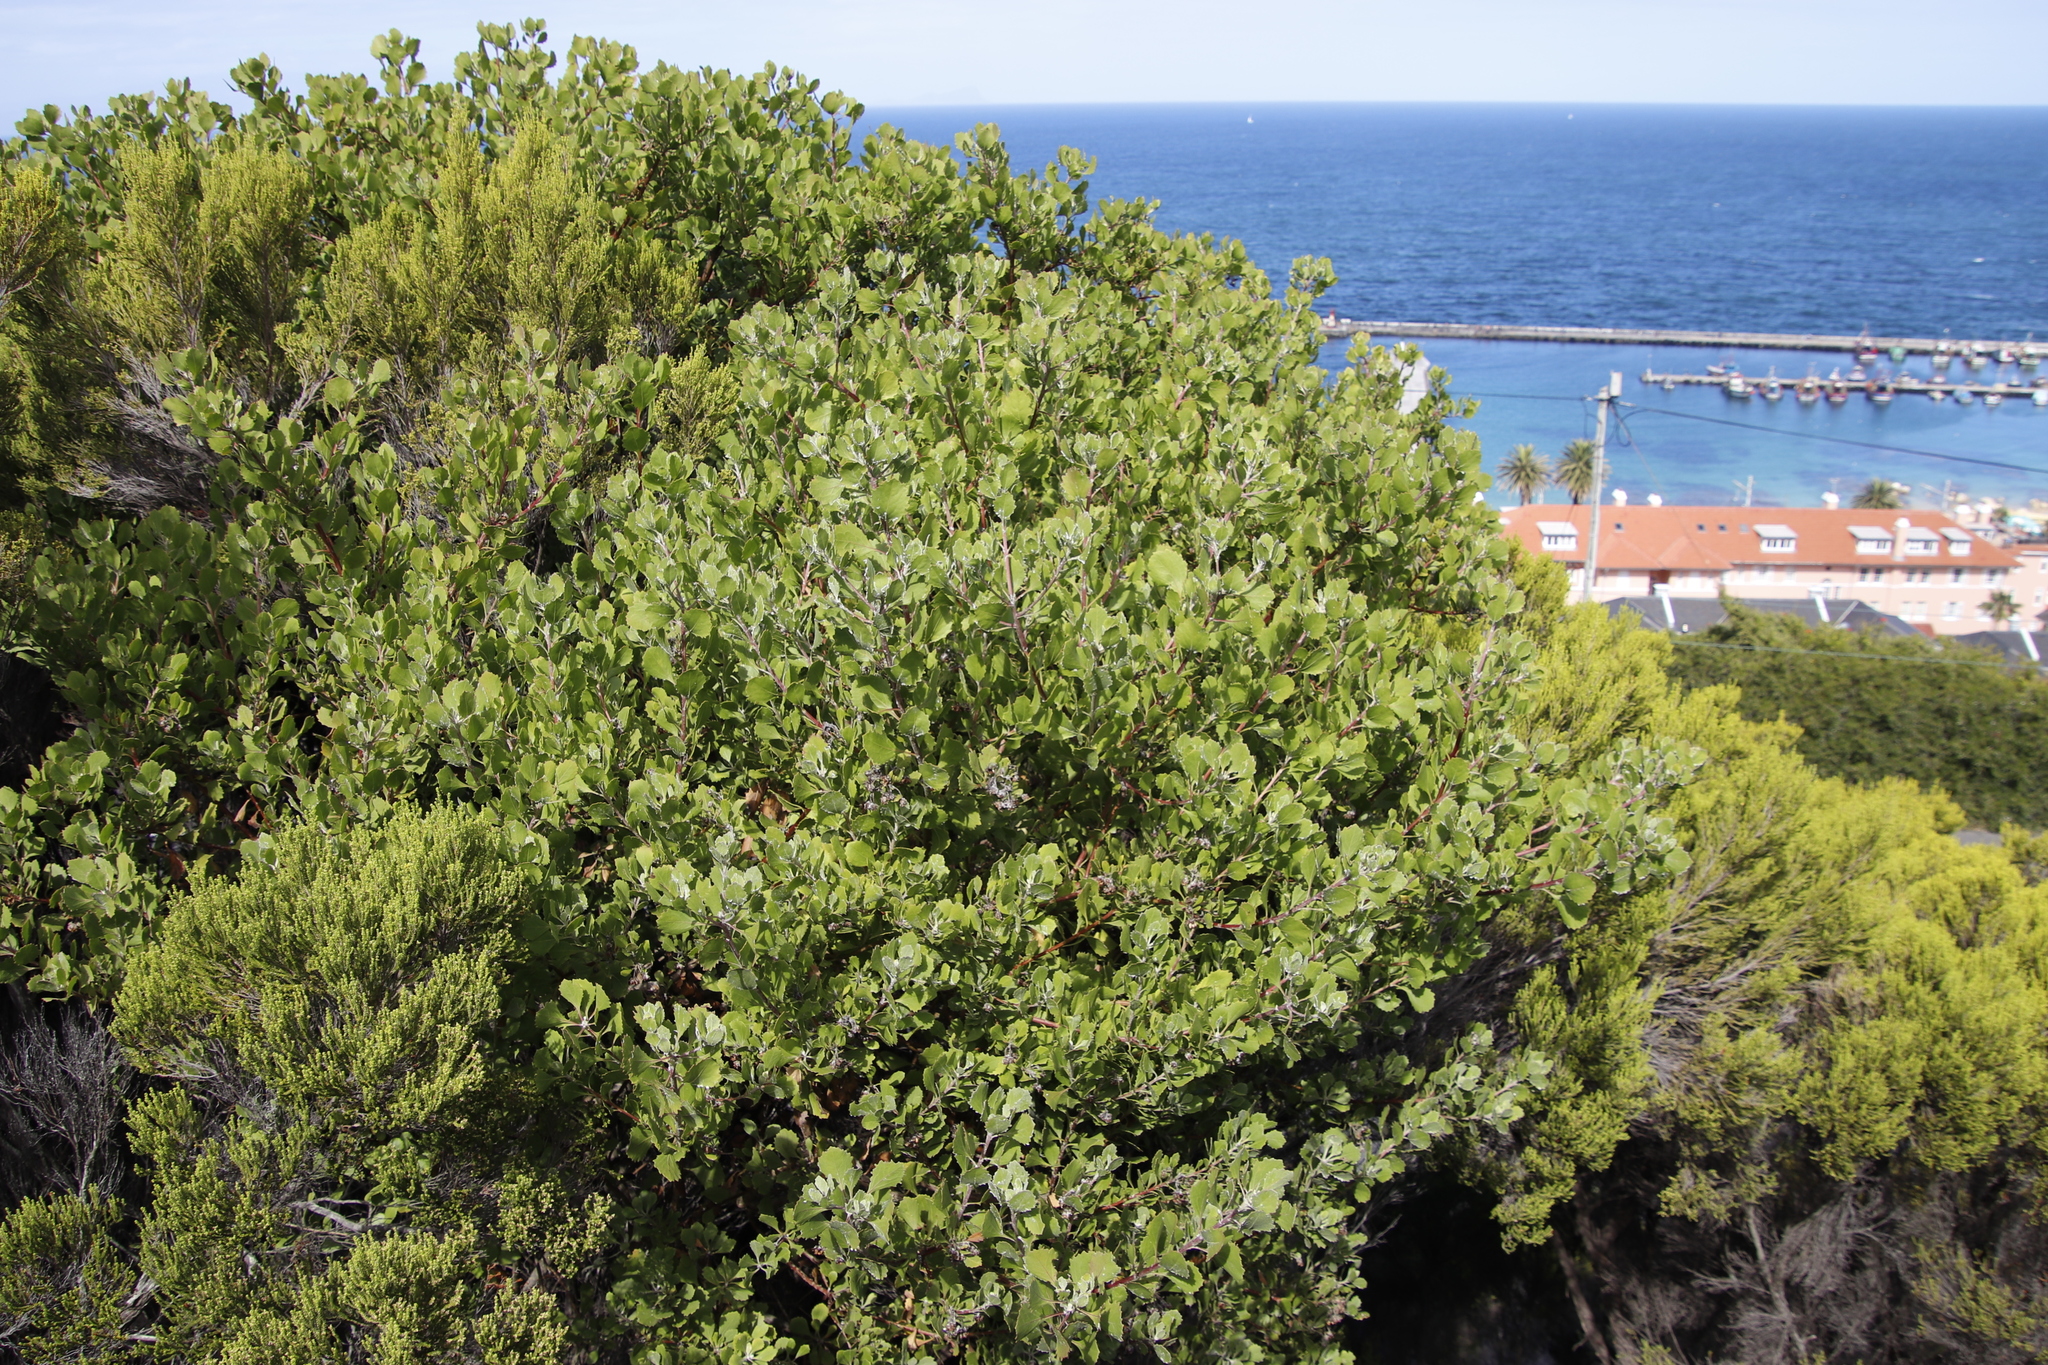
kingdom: Plantae
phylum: Tracheophyta
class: Magnoliopsida
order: Asterales
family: Asteraceae
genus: Osteospermum
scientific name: Osteospermum moniliferum
